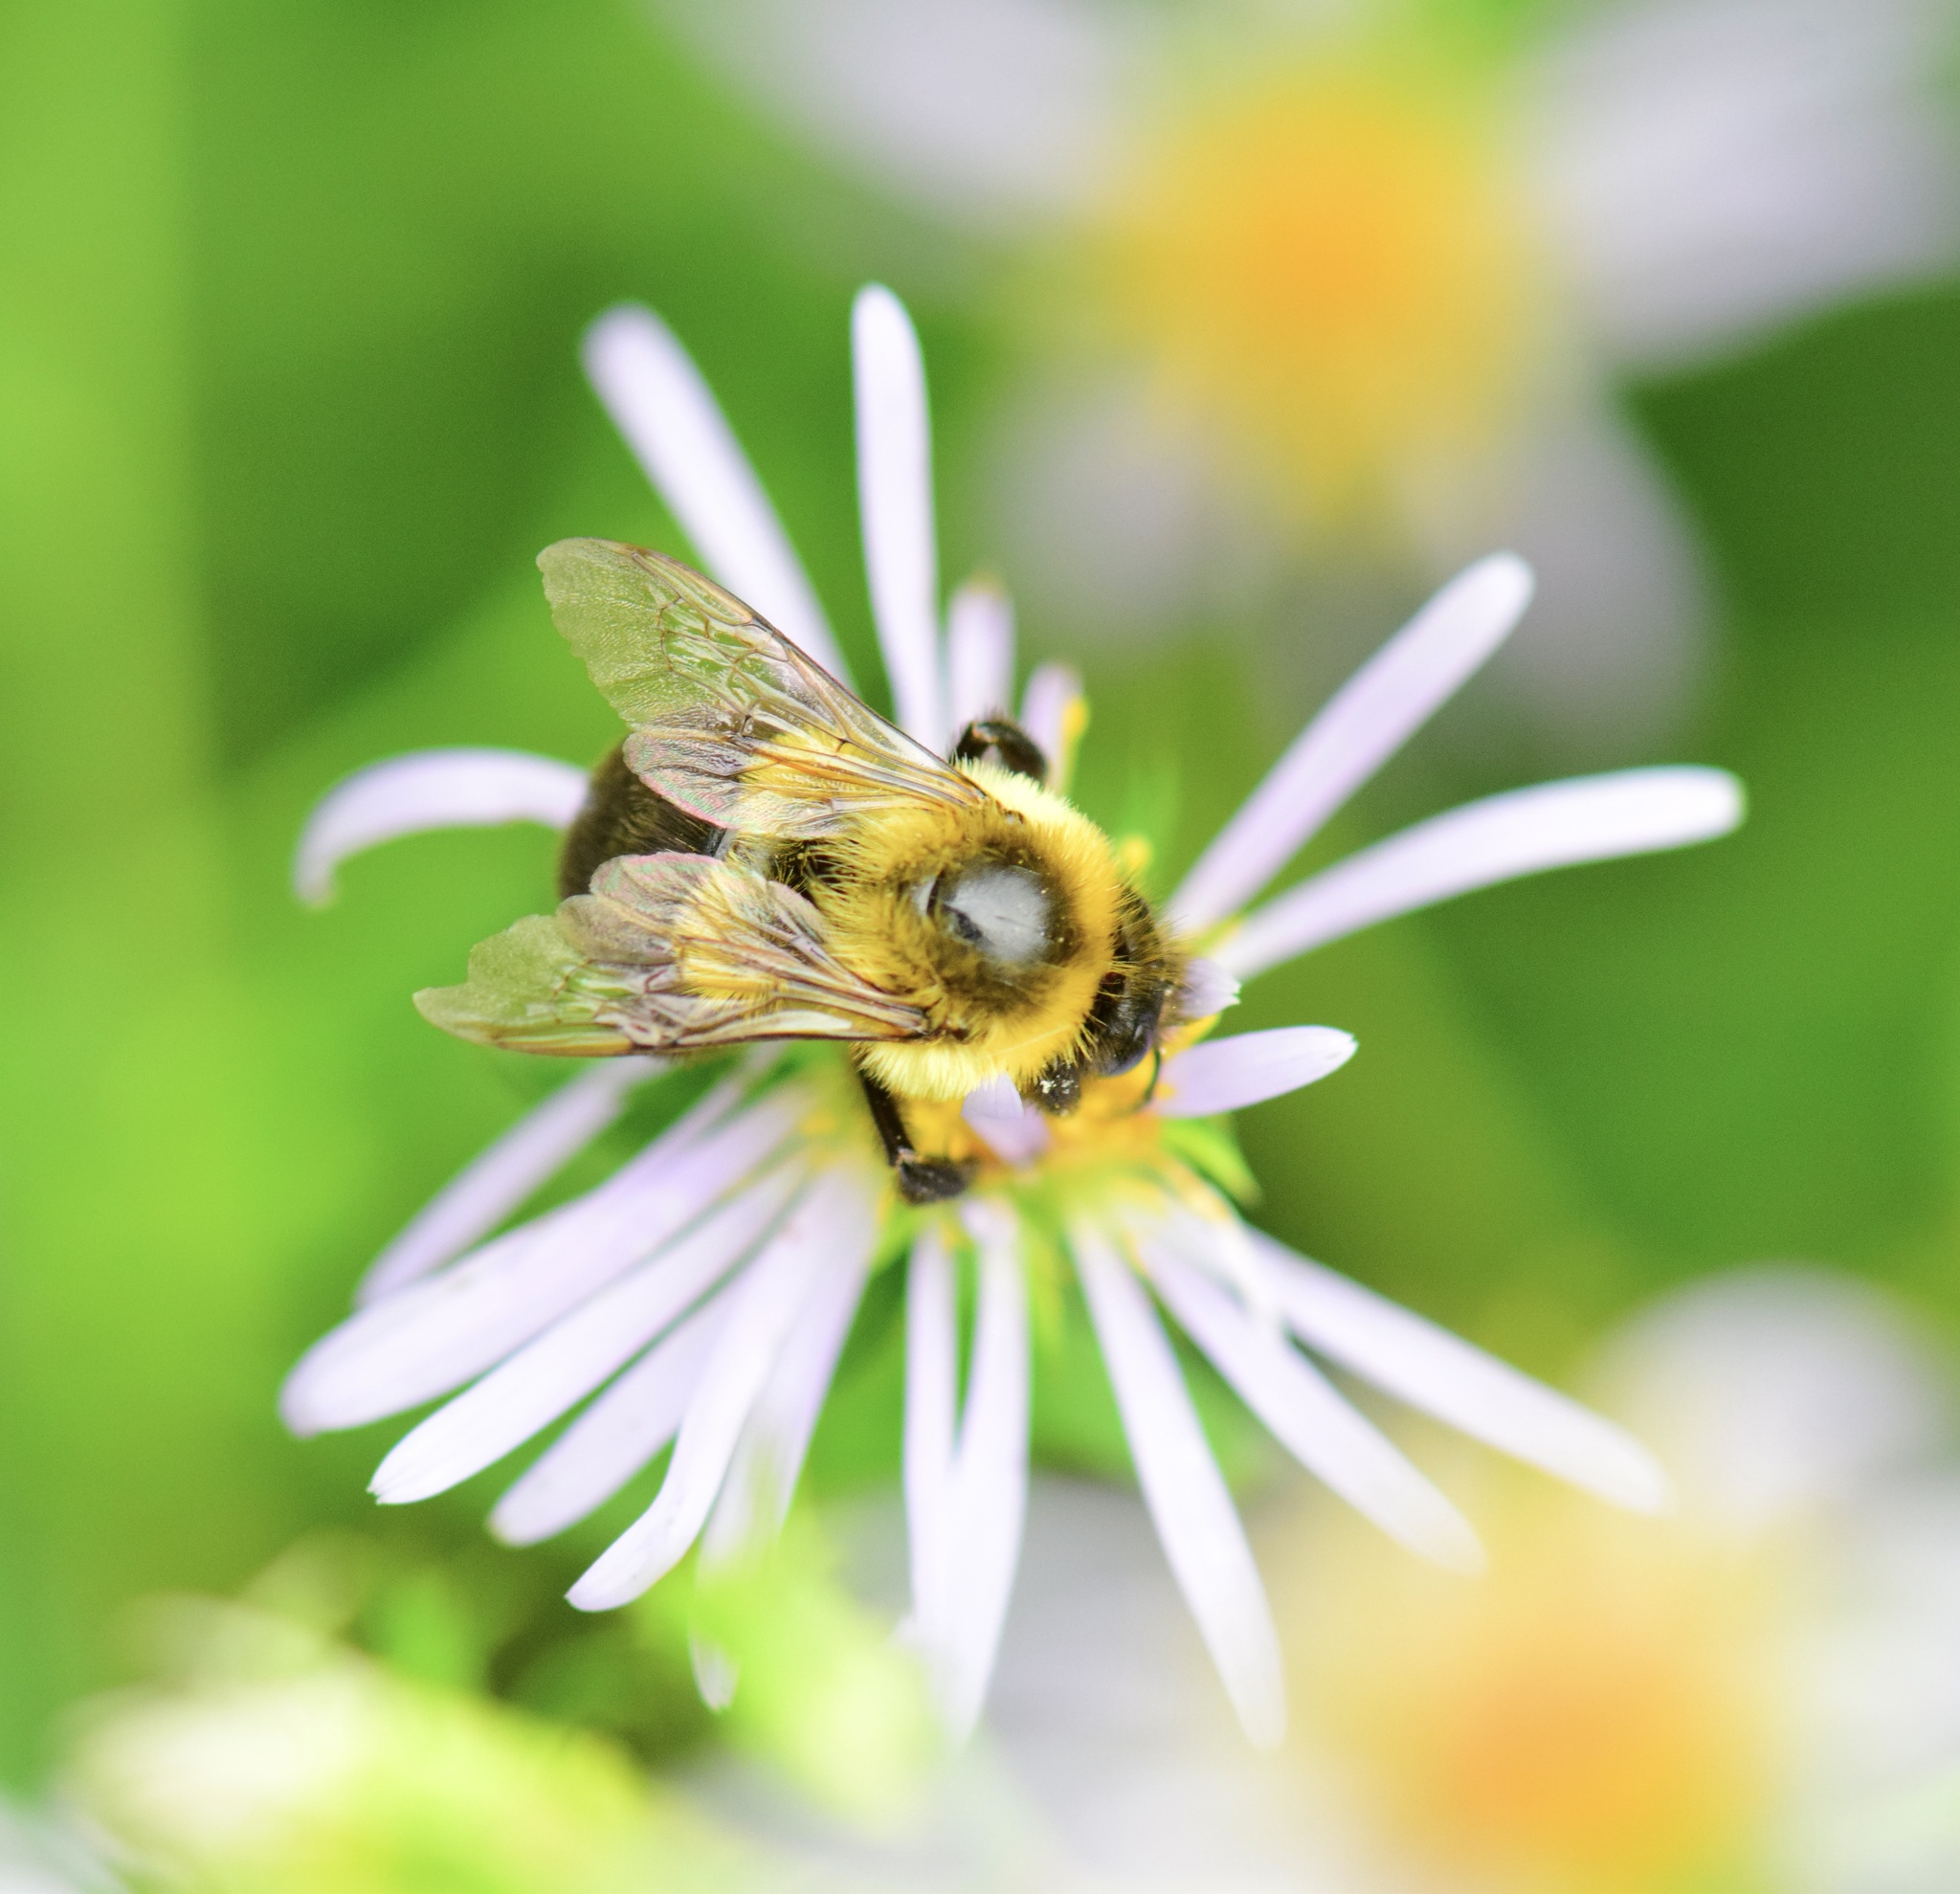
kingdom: Animalia
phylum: Arthropoda
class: Insecta
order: Hymenoptera
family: Apidae
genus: Bombus
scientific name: Bombus impatiens
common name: Common eastern bumble bee
